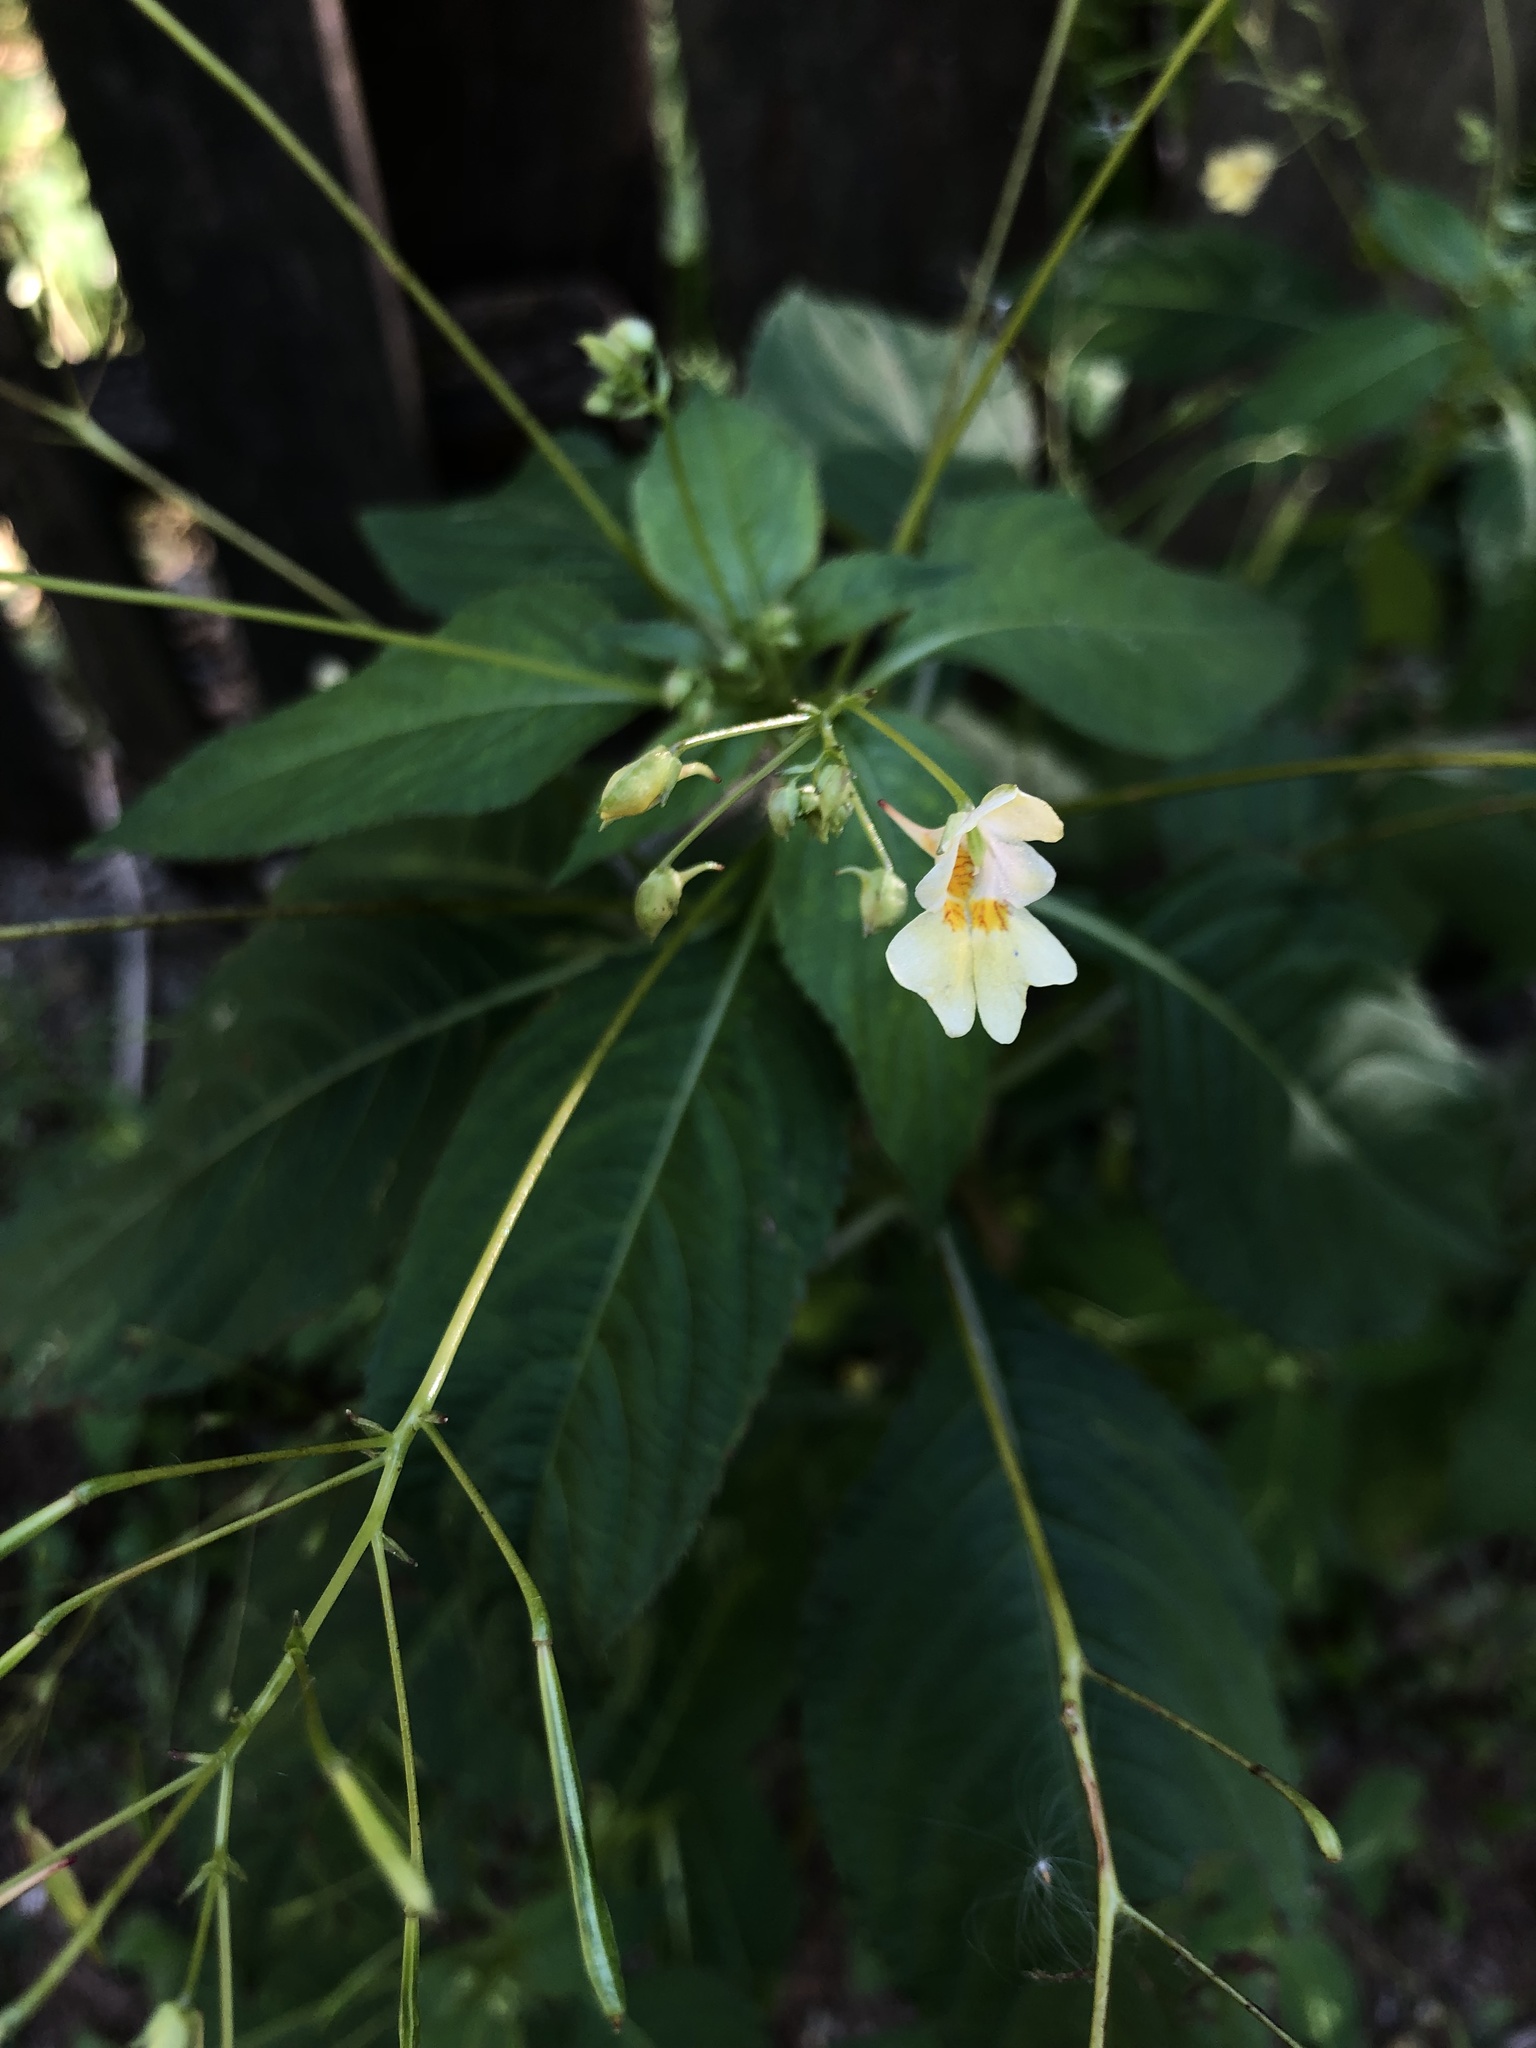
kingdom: Plantae
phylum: Tracheophyta
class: Magnoliopsida
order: Ericales
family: Balsaminaceae
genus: Impatiens
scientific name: Impatiens parviflora
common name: Small balsam
